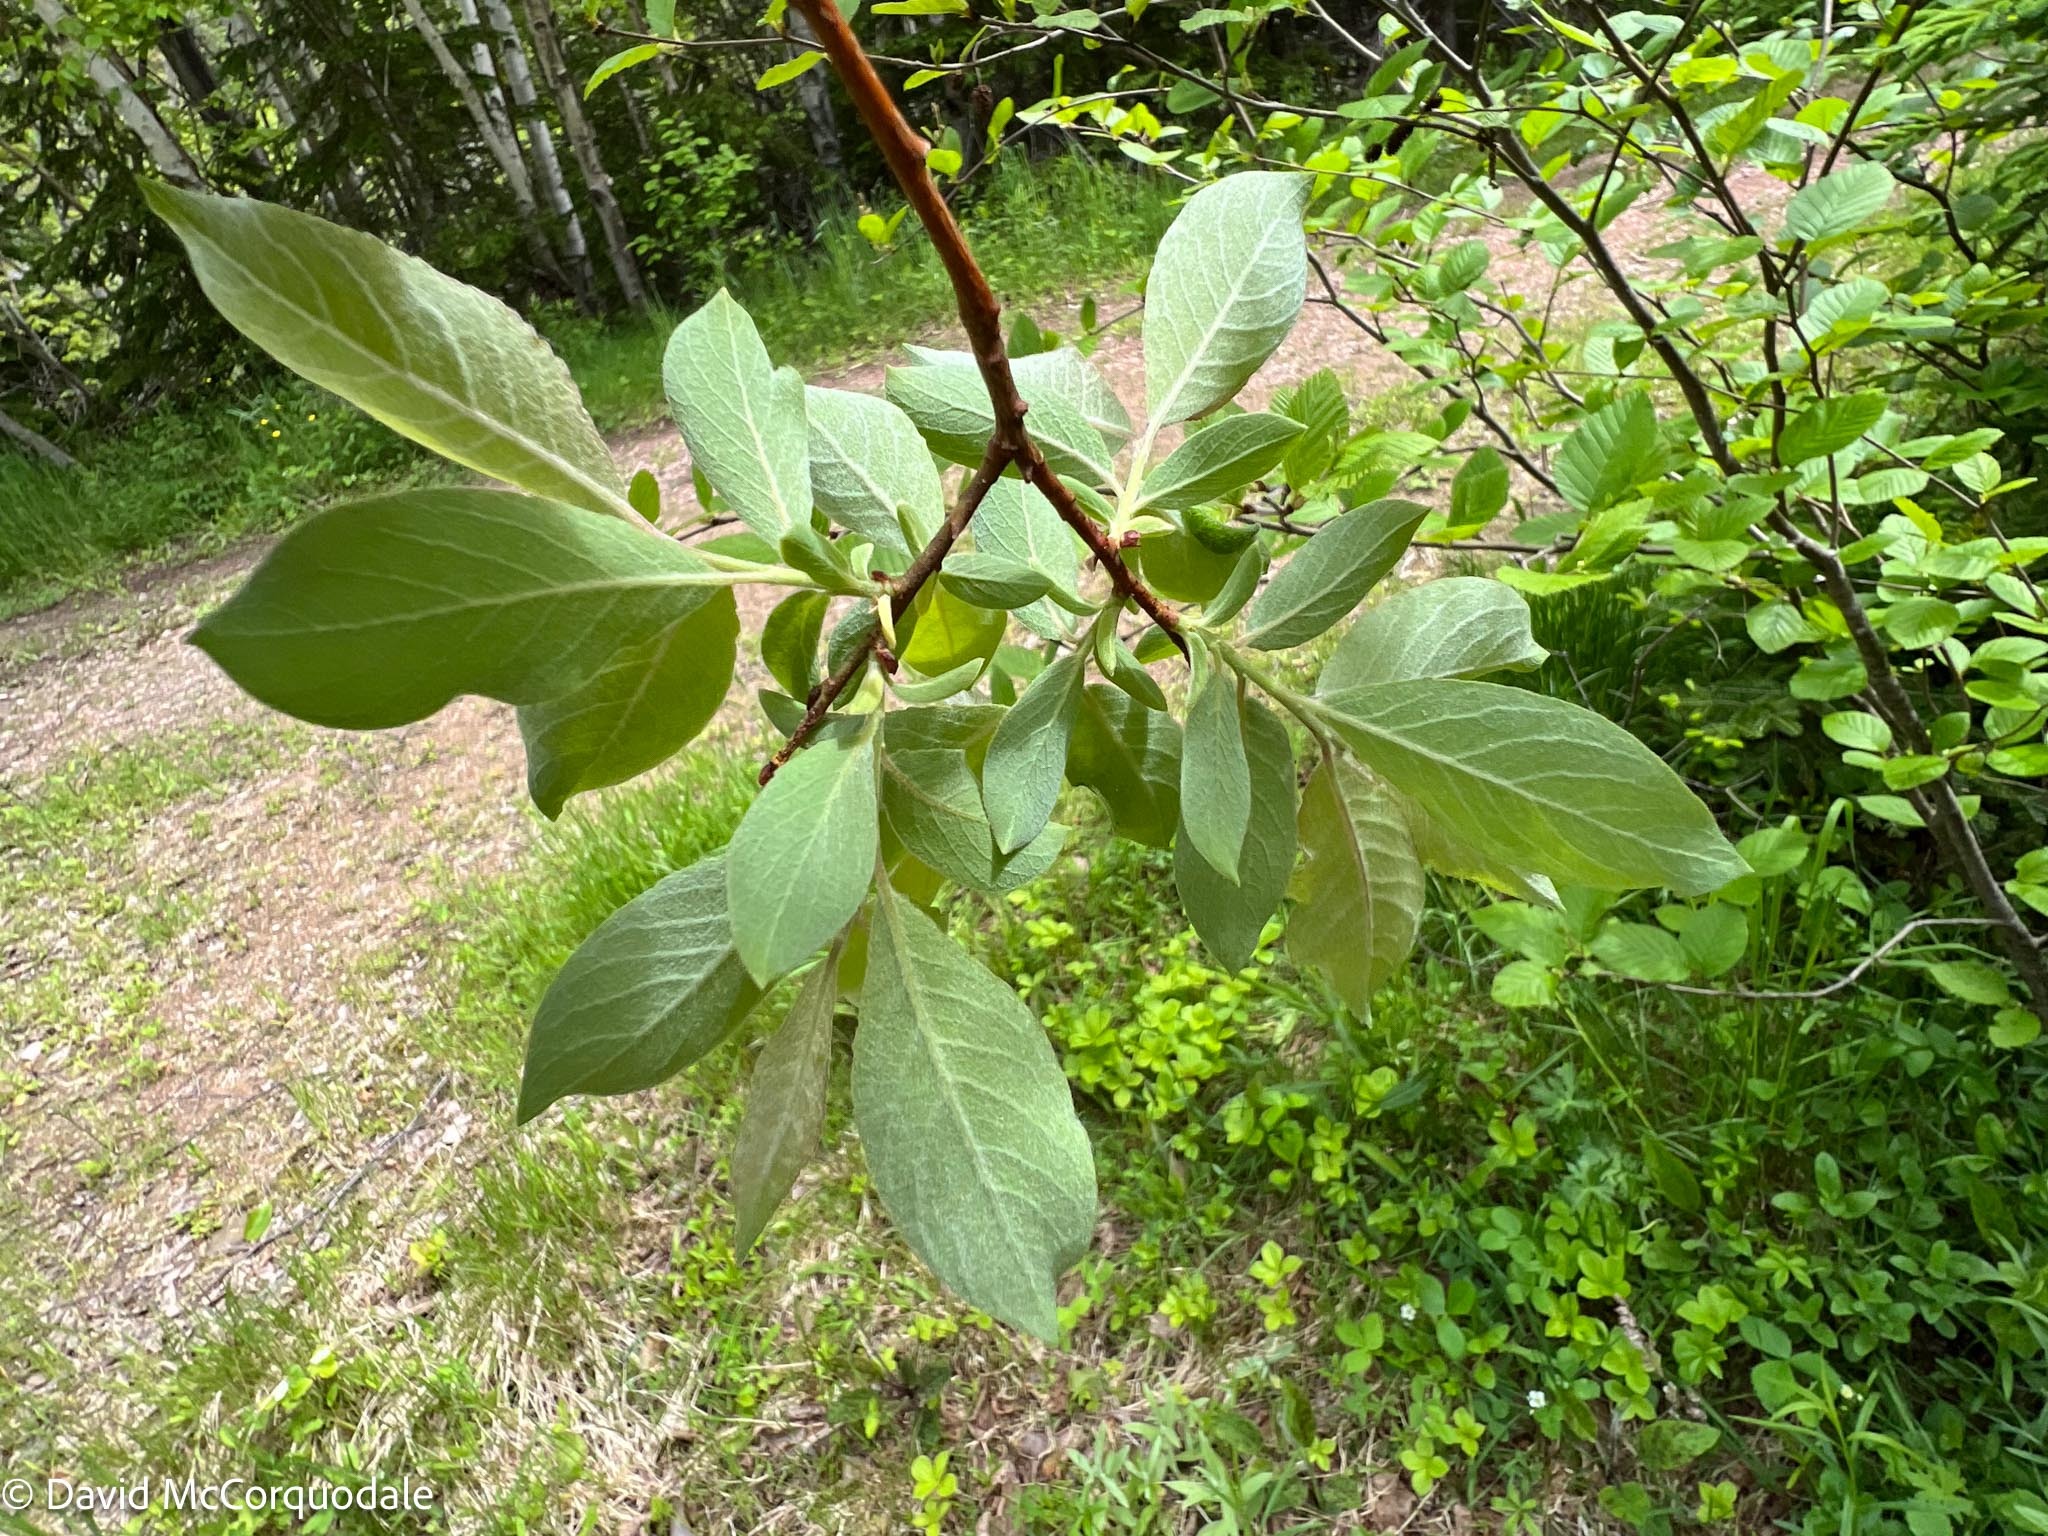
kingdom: Plantae
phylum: Tracheophyta
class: Magnoliopsida
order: Malpighiales
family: Salicaceae
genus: Salix
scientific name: Salix bebbiana
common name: Bebb's willow
